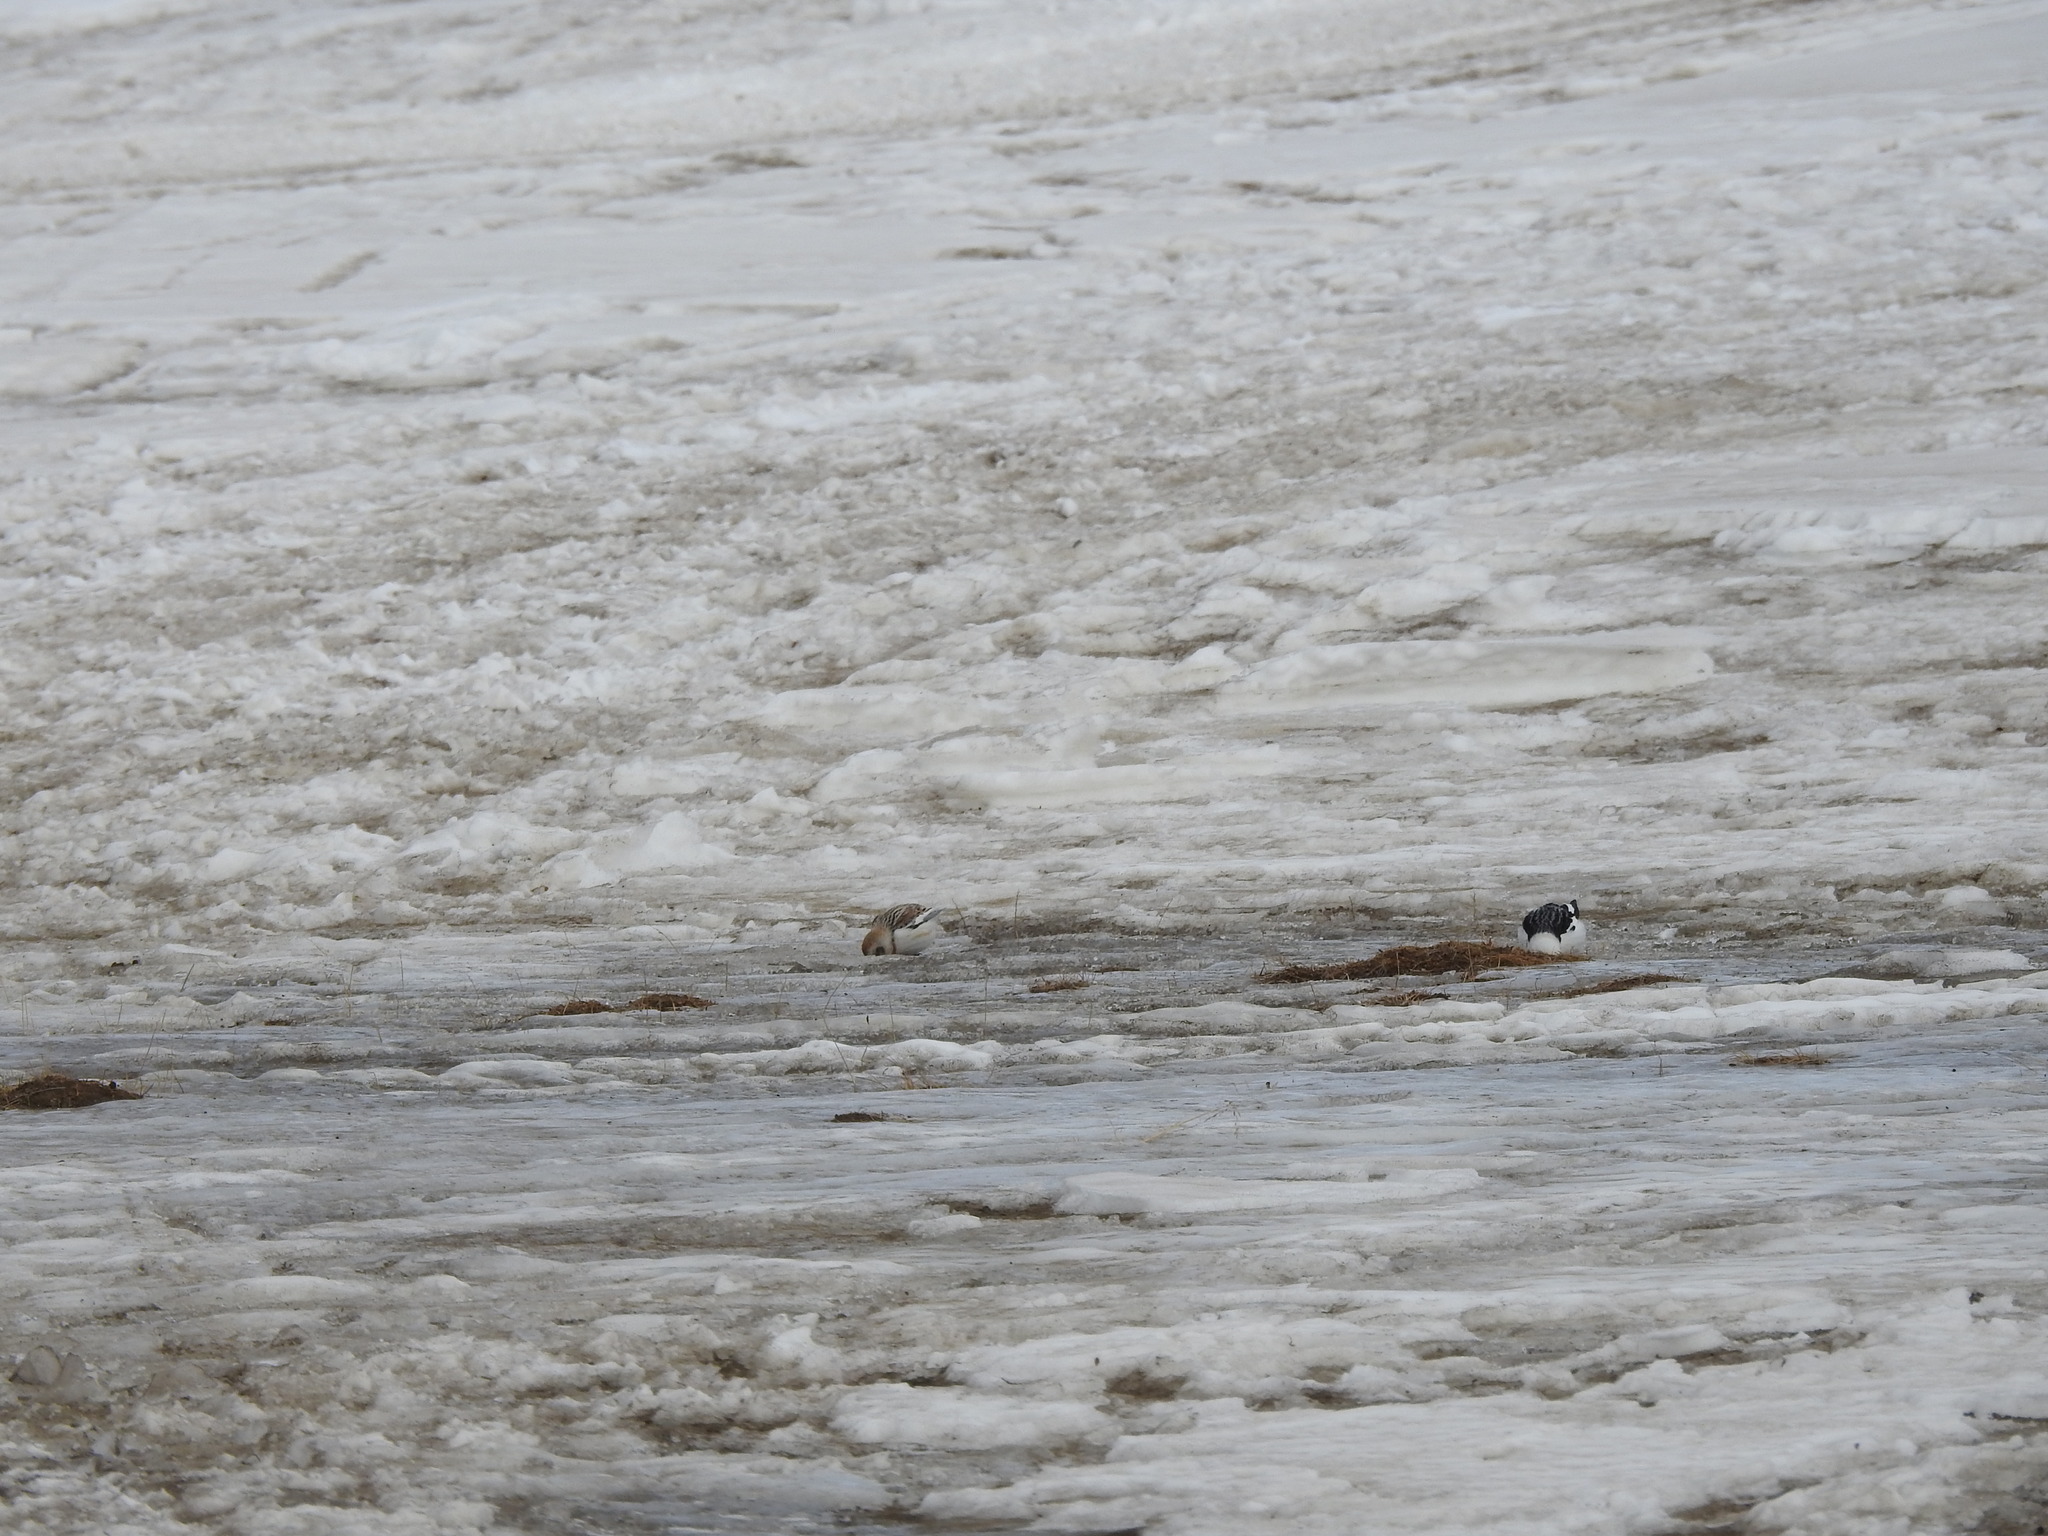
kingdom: Animalia
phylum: Chordata
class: Aves
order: Passeriformes
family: Calcariidae
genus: Plectrophenax
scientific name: Plectrophenax nivalis
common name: Snow bunting
